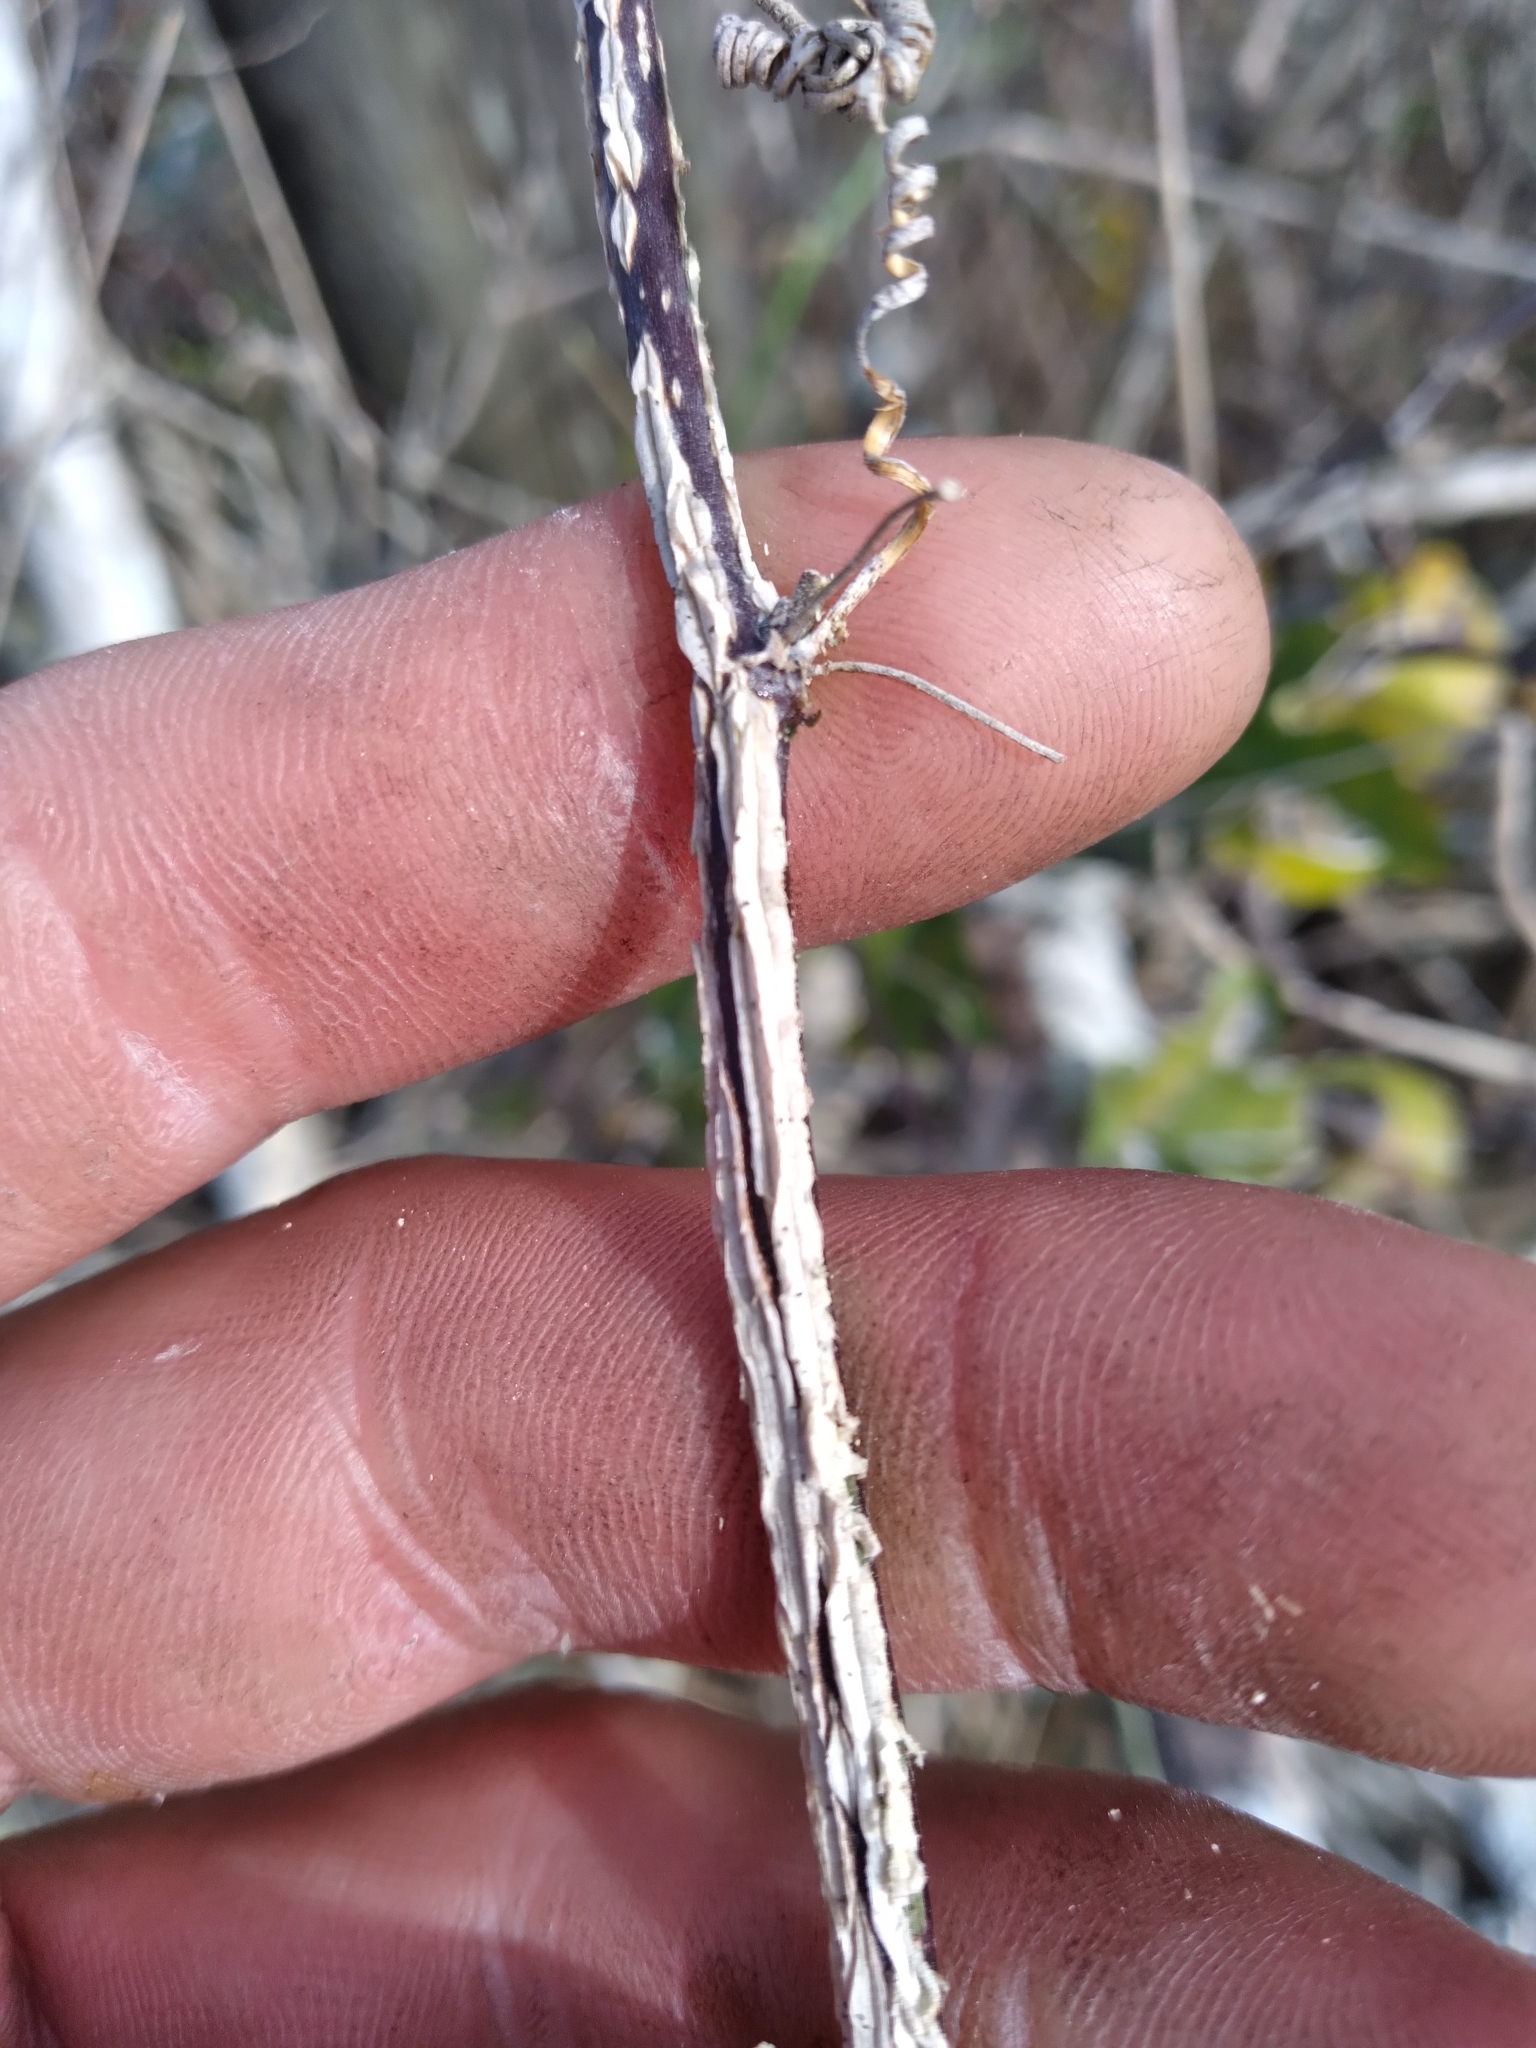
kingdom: Plantae
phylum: Tracheophyta
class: Magnoliopsida
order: Malpighiales
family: Passifloraceae
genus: Passiflora
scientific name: Passiflora pallida
